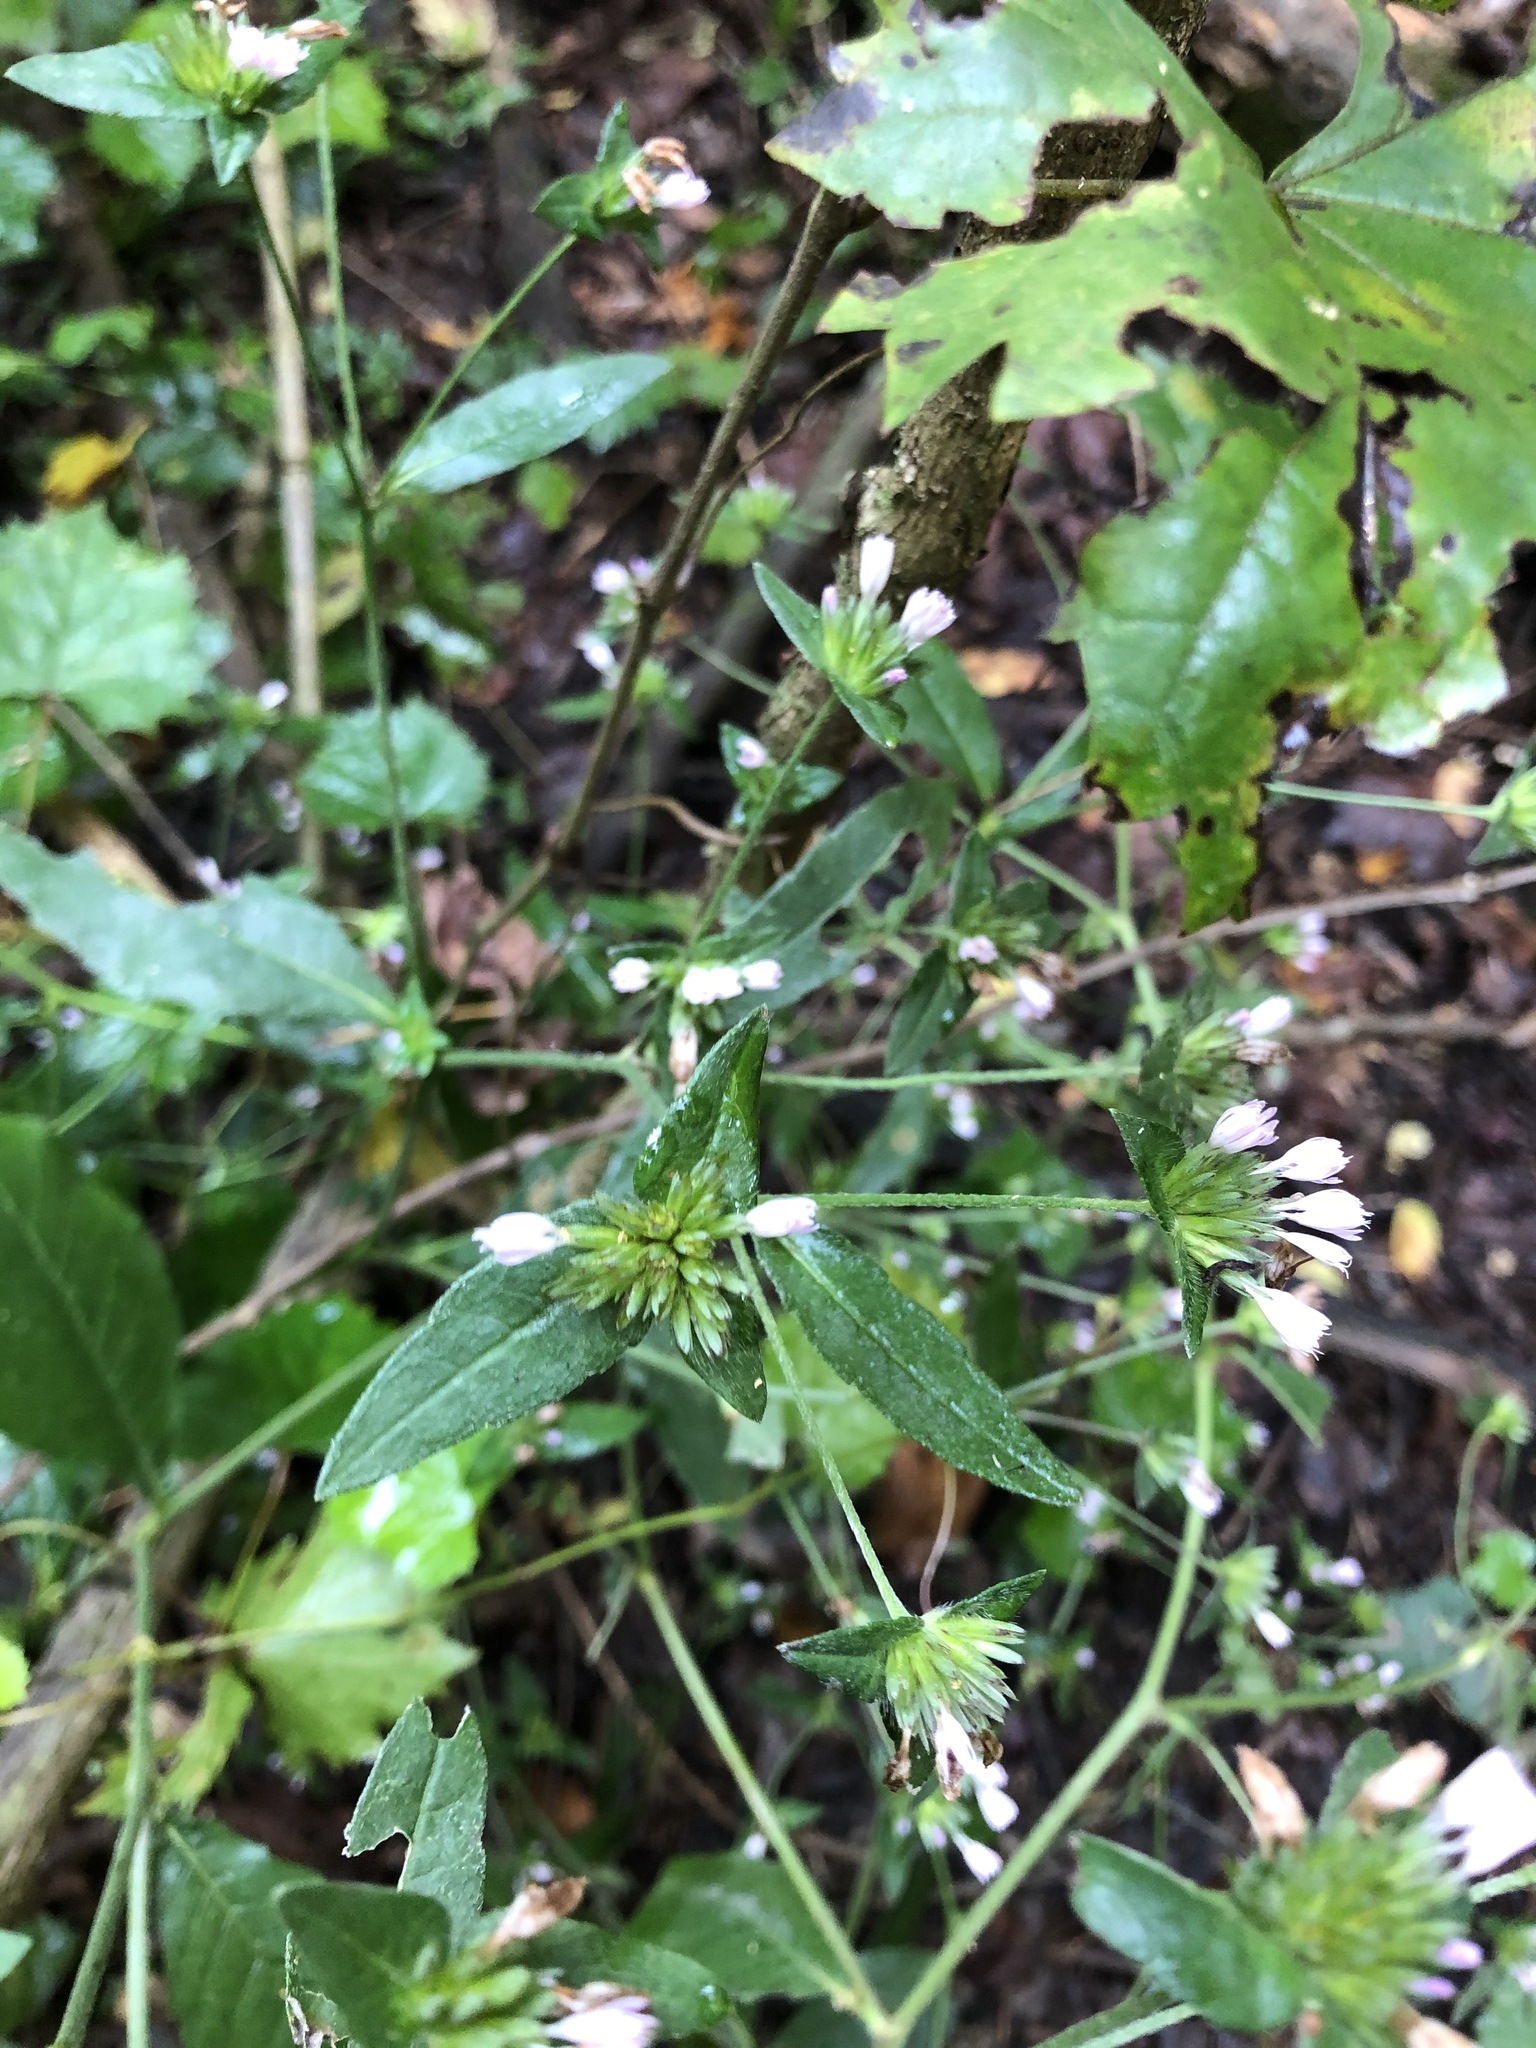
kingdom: Plantae
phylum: Tracheophyta
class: Magnoliopsida
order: Asterales
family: Asteraceae
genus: Elephantopus
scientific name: Elephantopus carolinianus
